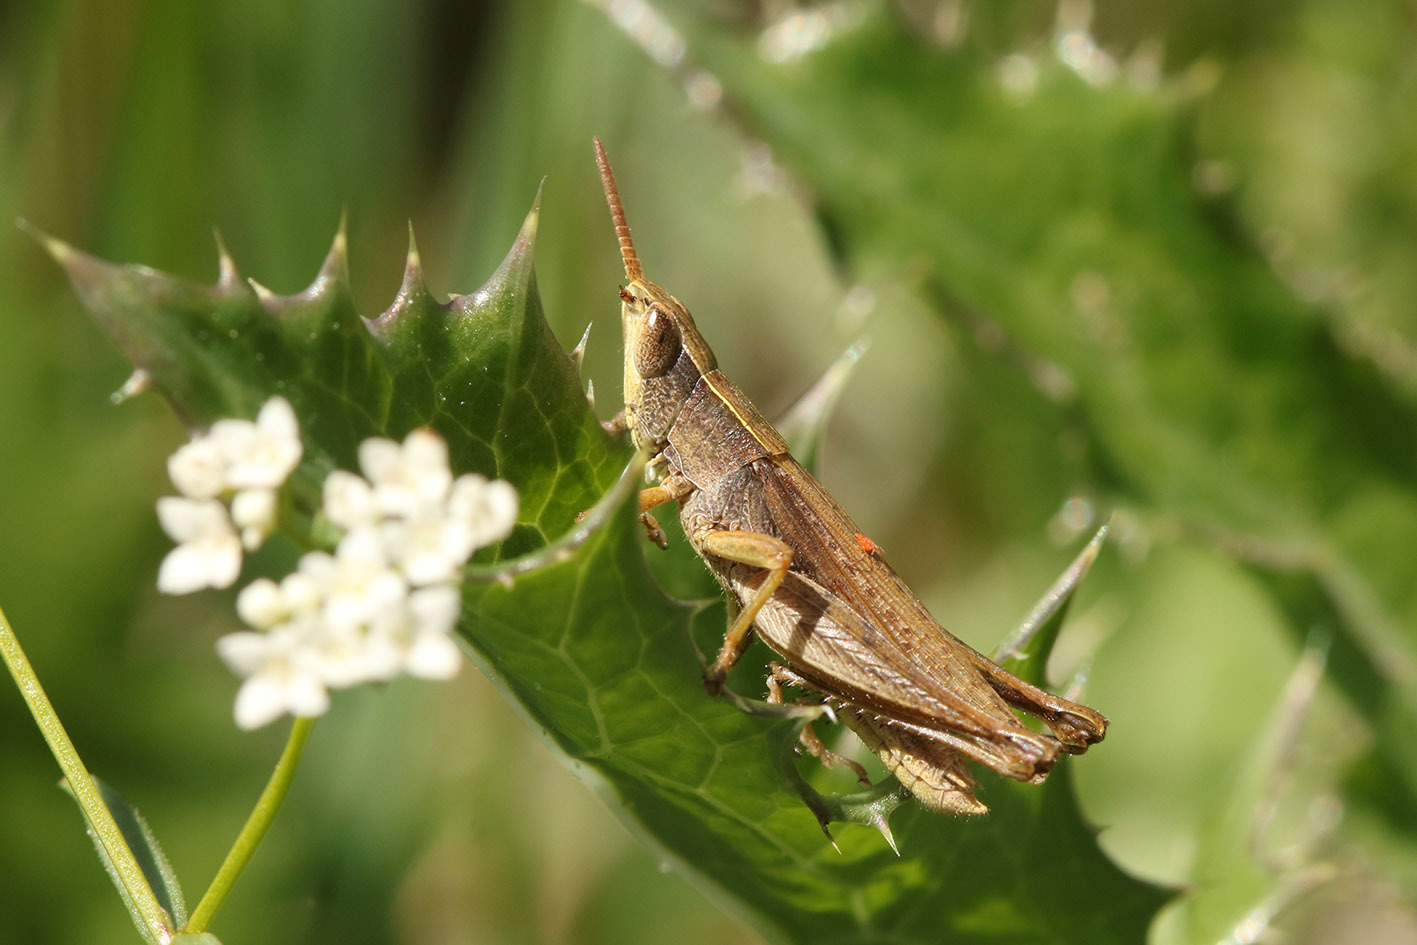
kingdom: Animalia
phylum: Arthropoda
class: Insecta
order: Orthoptera
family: Acrididae
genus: Laplatacris
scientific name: Laplatacris dispar
